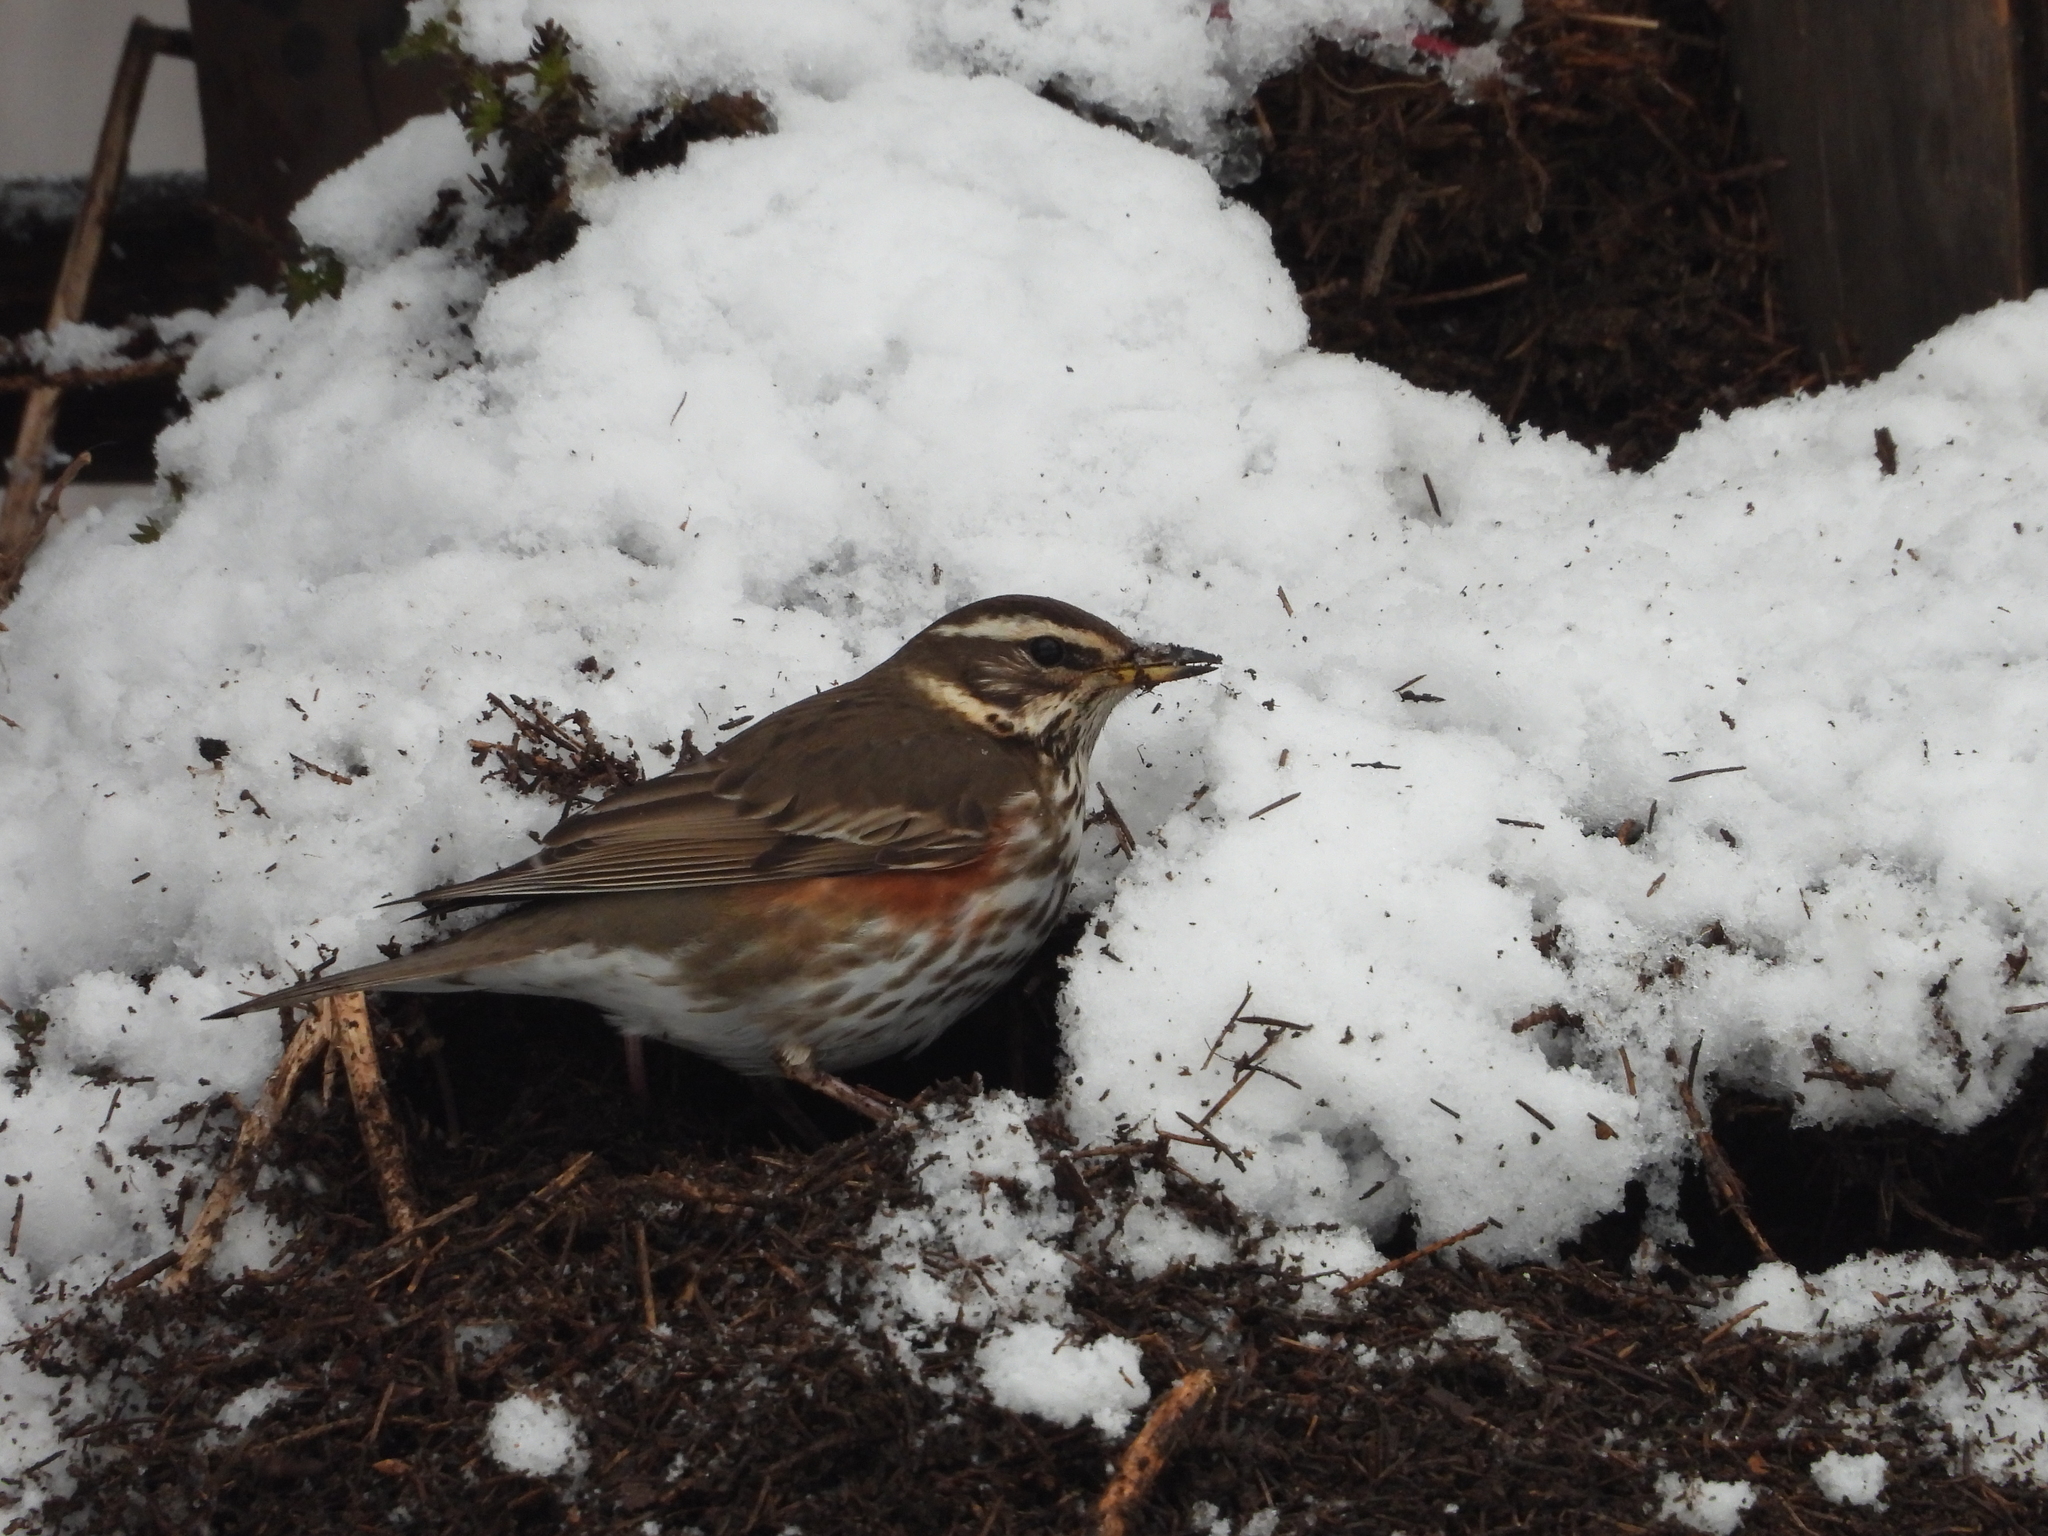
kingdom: Animalia
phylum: Chordata
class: Aves
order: Passeriformes
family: Turdidae
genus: Turdus
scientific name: Turdus iliacus
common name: Redwing
